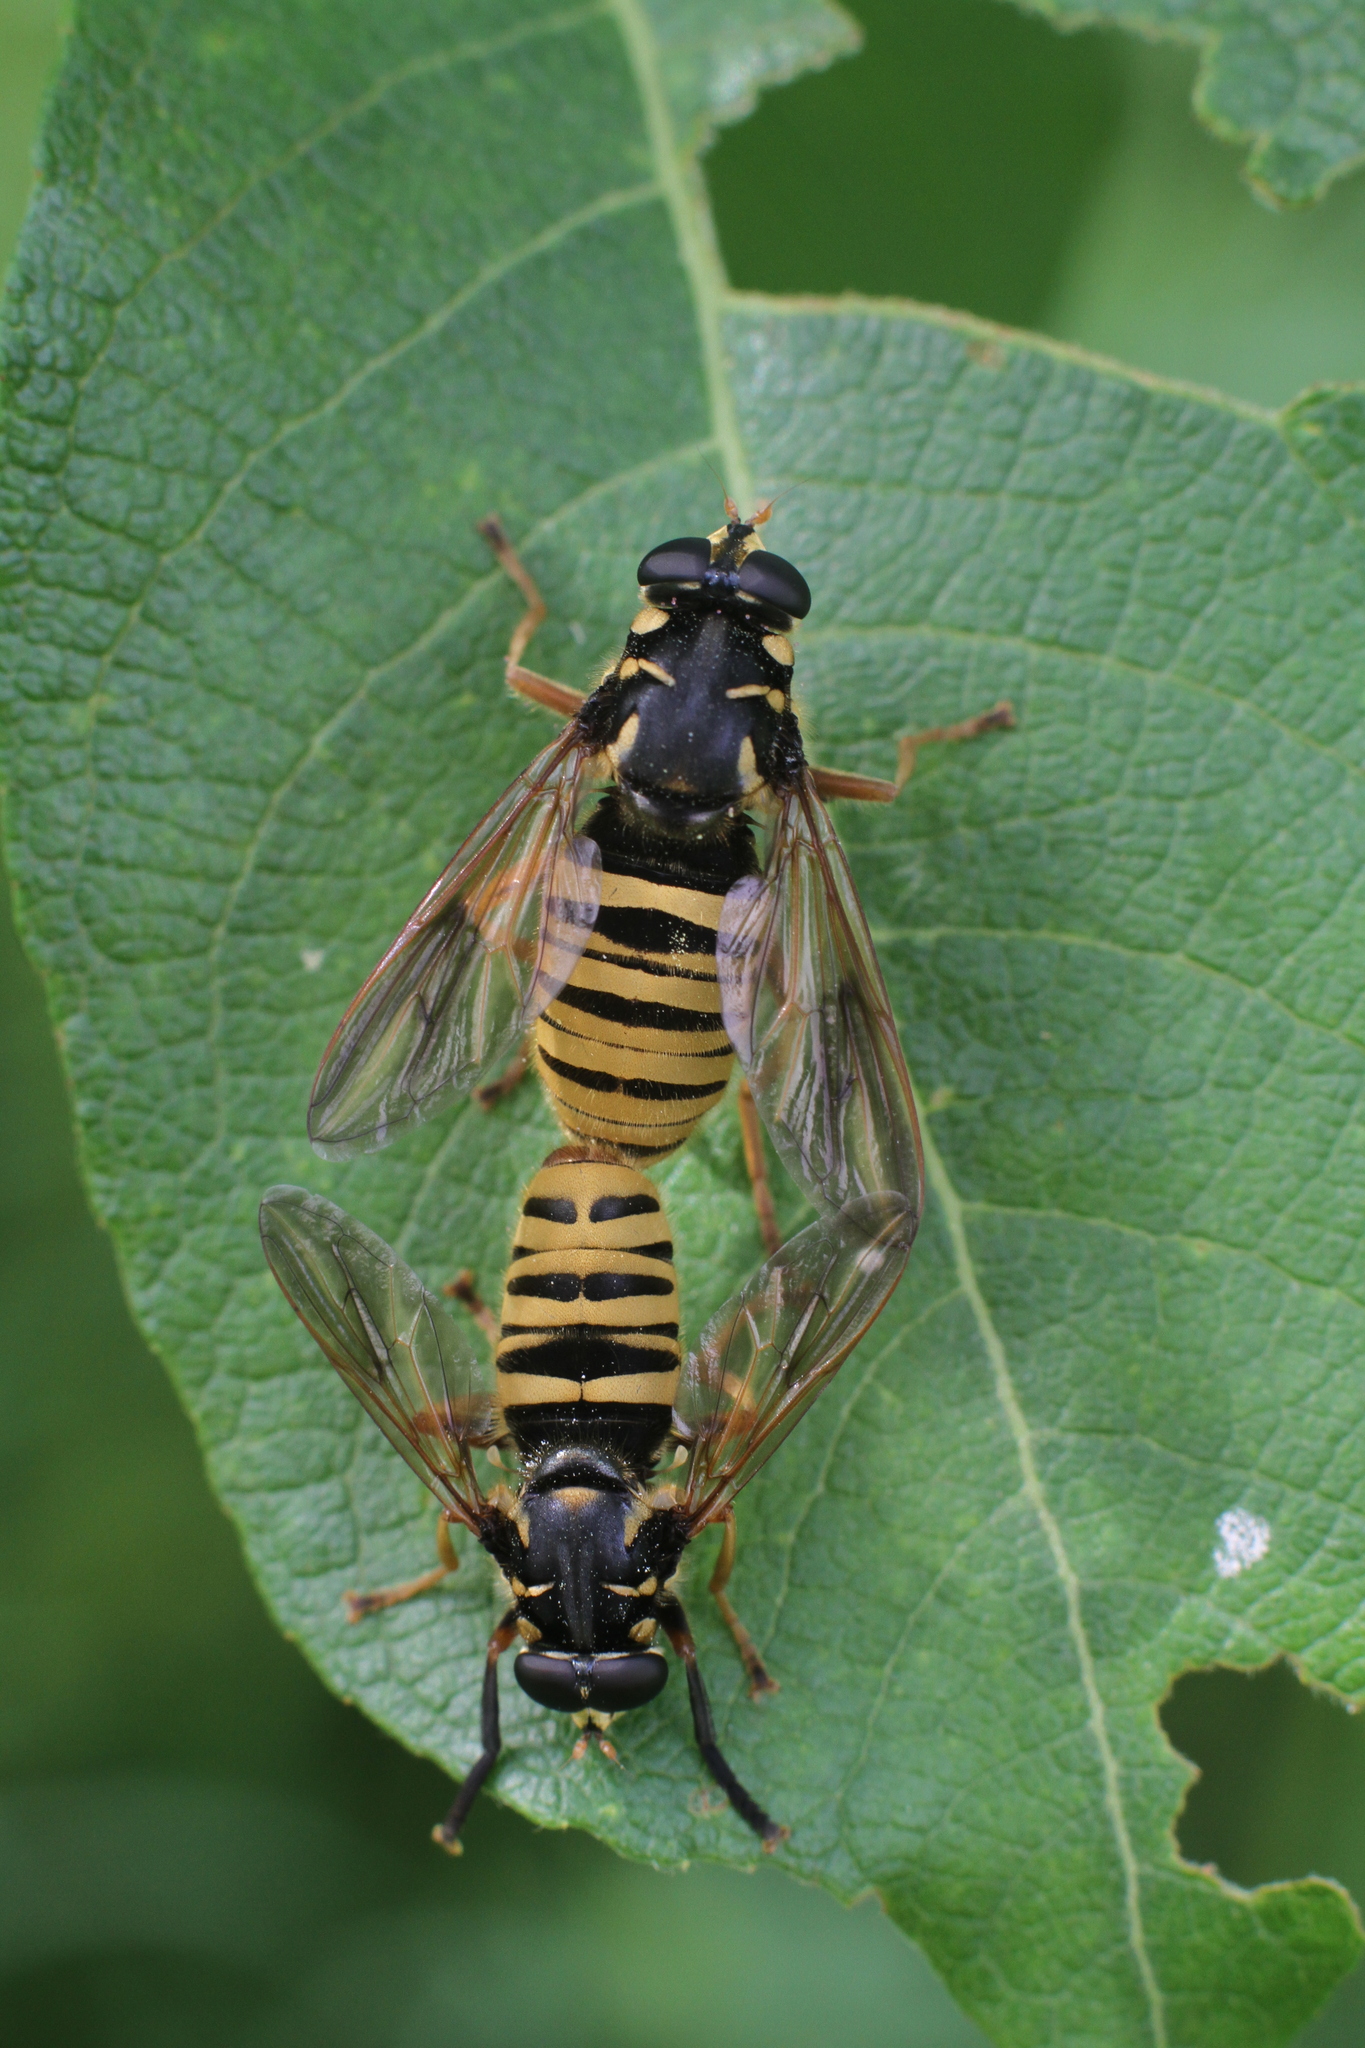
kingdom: Animalia
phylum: Arthropoda
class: Insecta
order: Diptera
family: Syrphidae
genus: Temnostoma
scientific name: Temnostoma vespiforme
